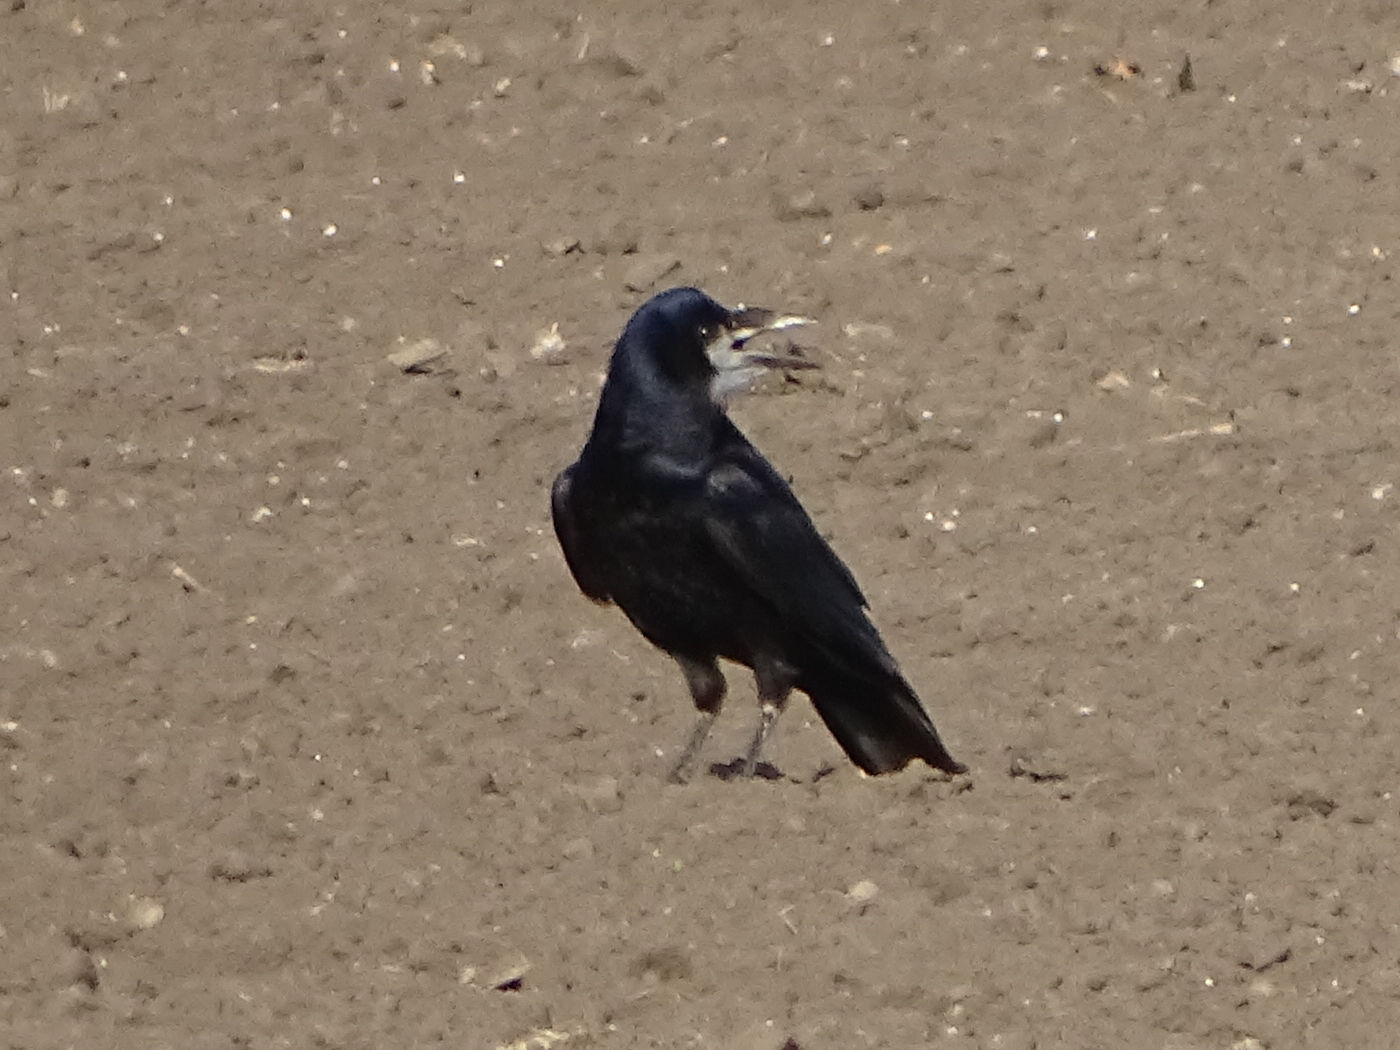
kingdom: Animalia
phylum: Chordata
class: Aves
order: Passeriformes
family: Corvidae
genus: Corvus
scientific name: Corvus frugilegus
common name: Rook
